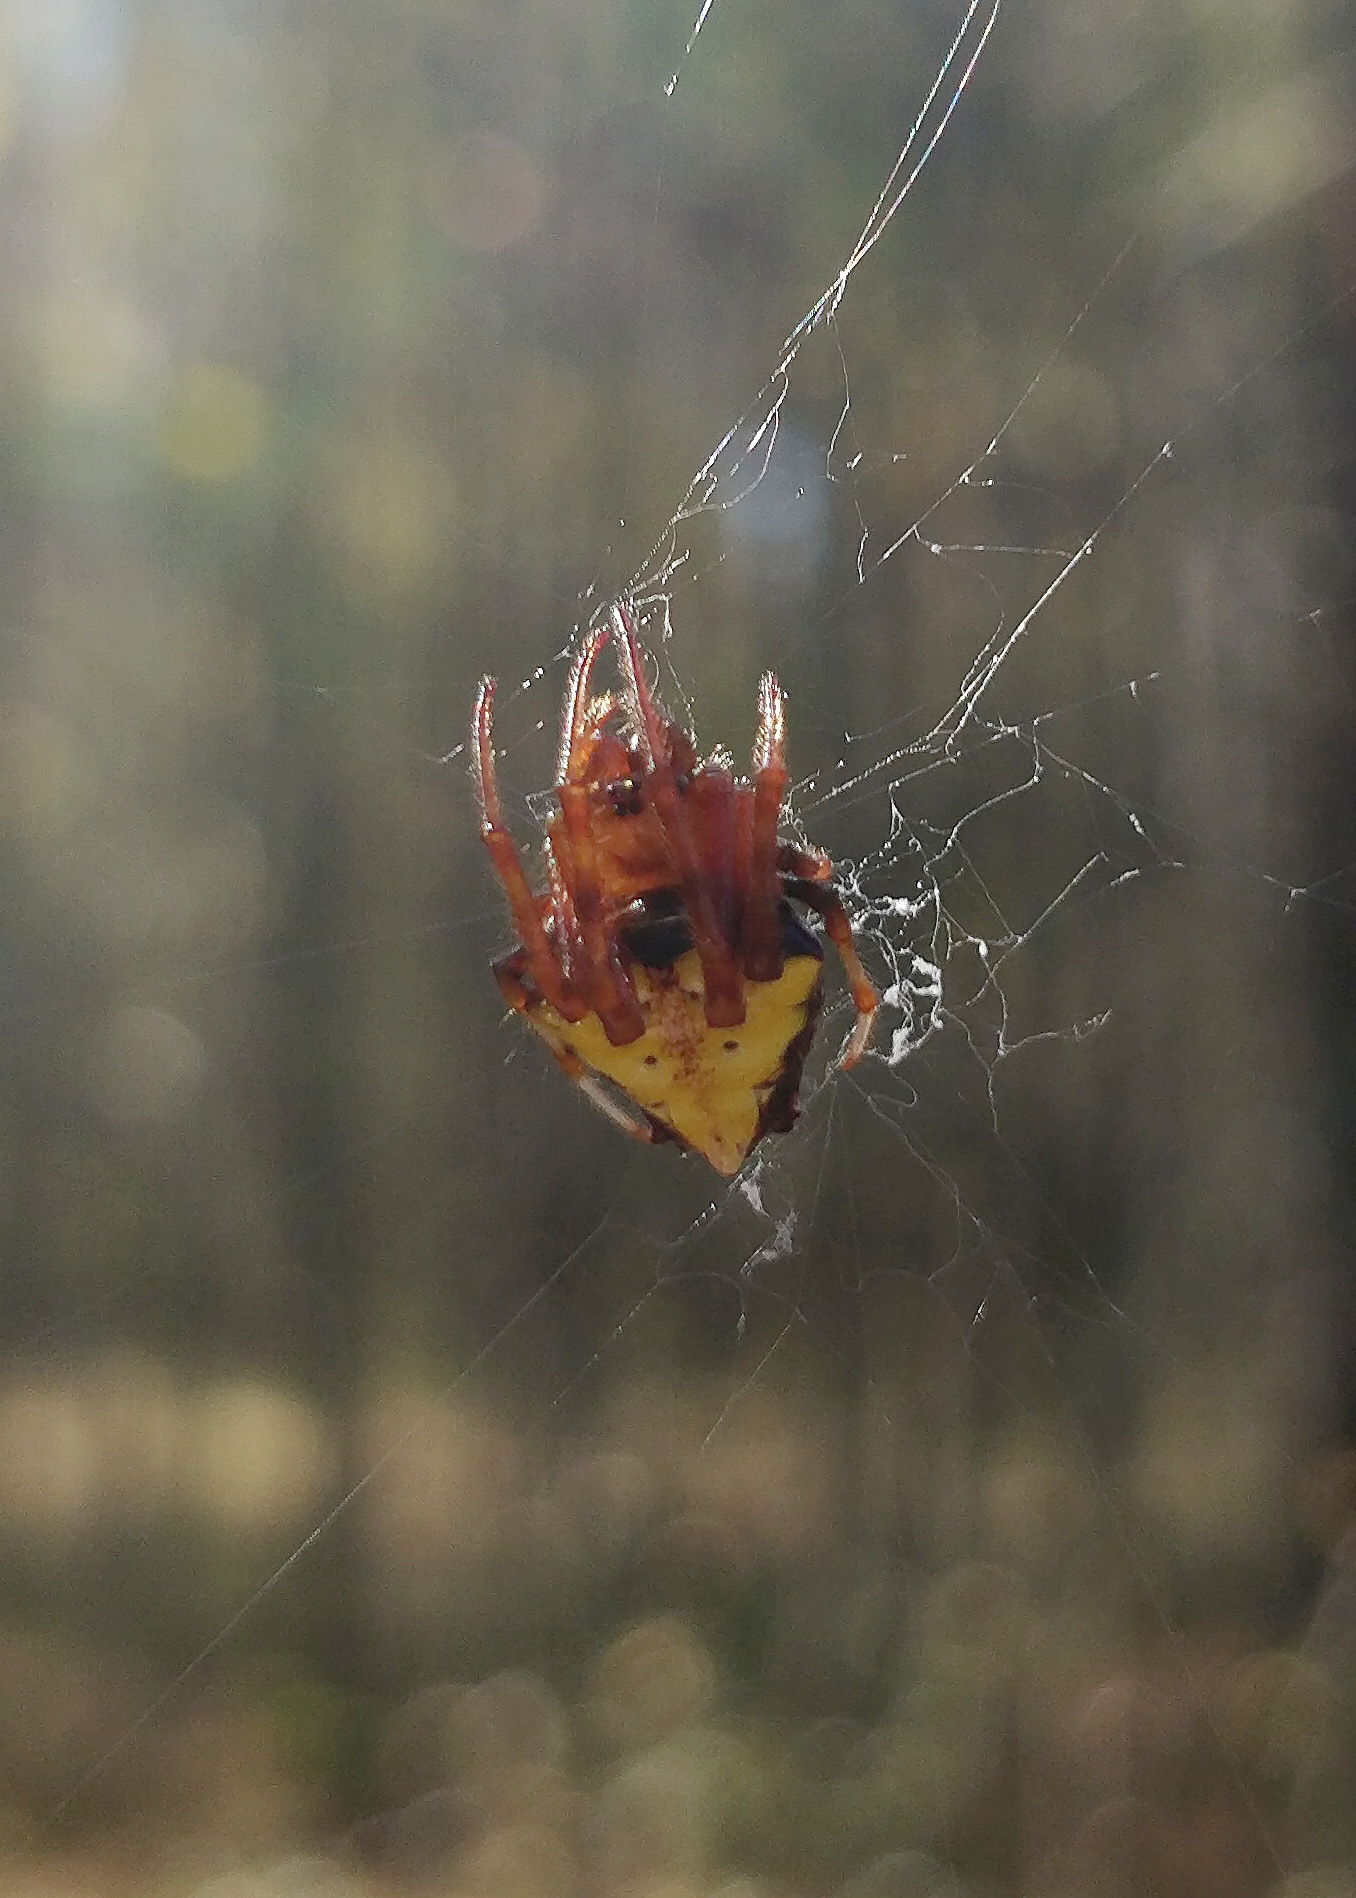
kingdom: Animalia
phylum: Arthropoda
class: Arachnida
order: Araneae
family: Araneidae
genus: Verrucosa
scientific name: Verrucosa arenata
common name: Orb weavers
